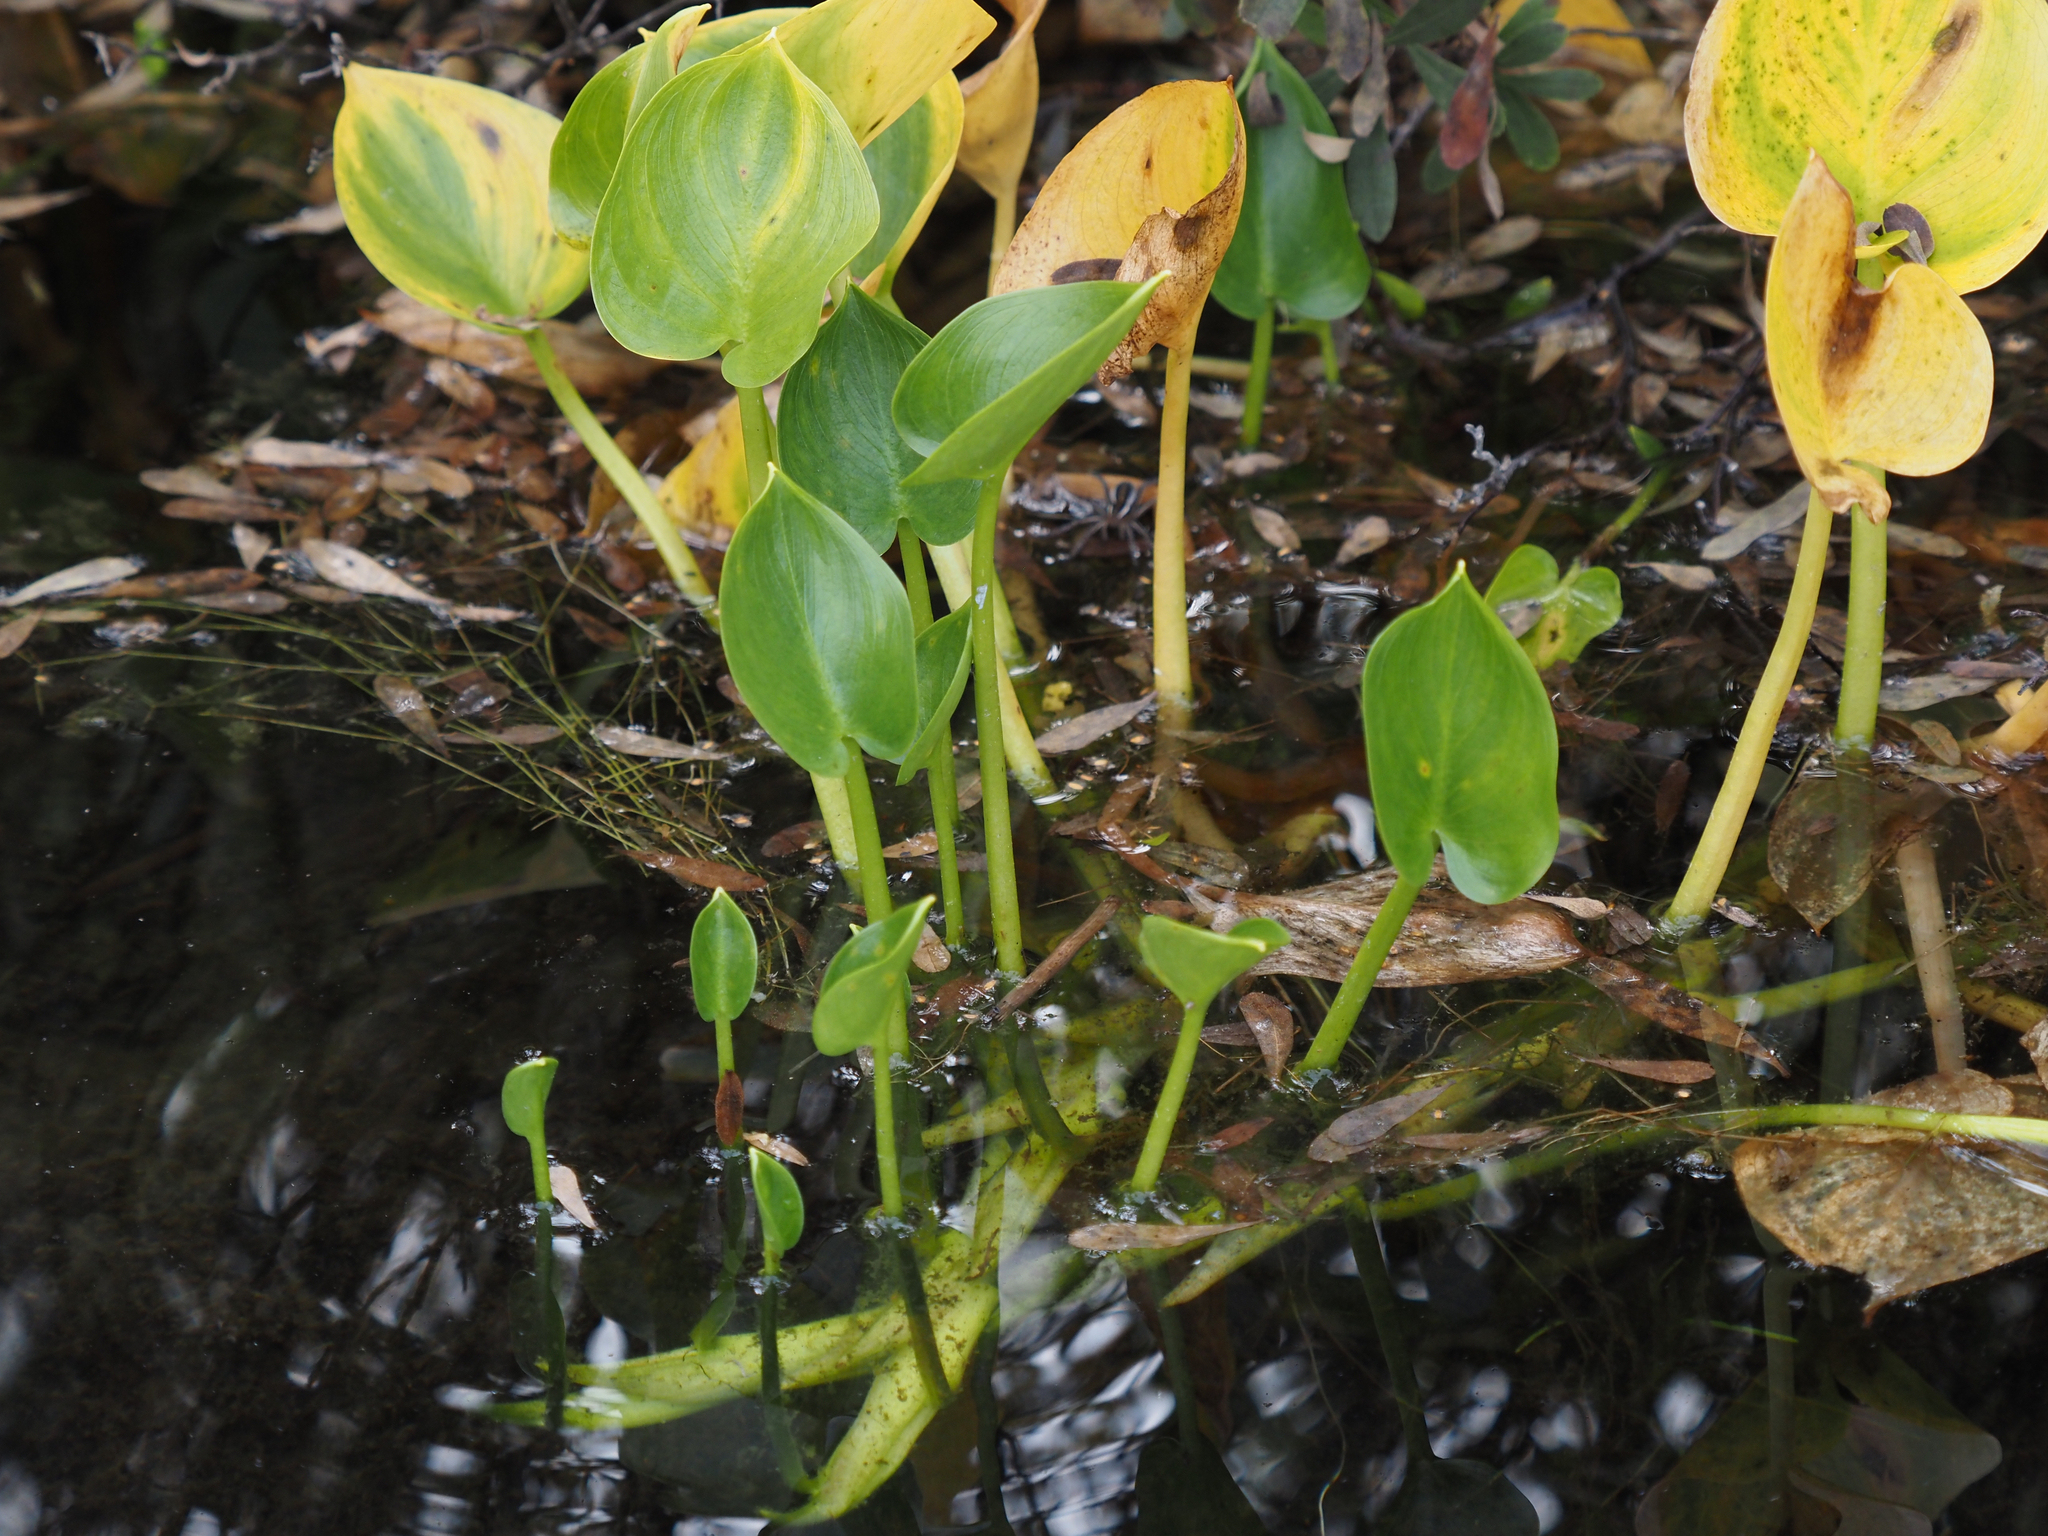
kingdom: Plantae
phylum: Tracheophyta
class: Liliopsida
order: Alismatales
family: Araceae
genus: Calla
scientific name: Calla palustris
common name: Bog arum
